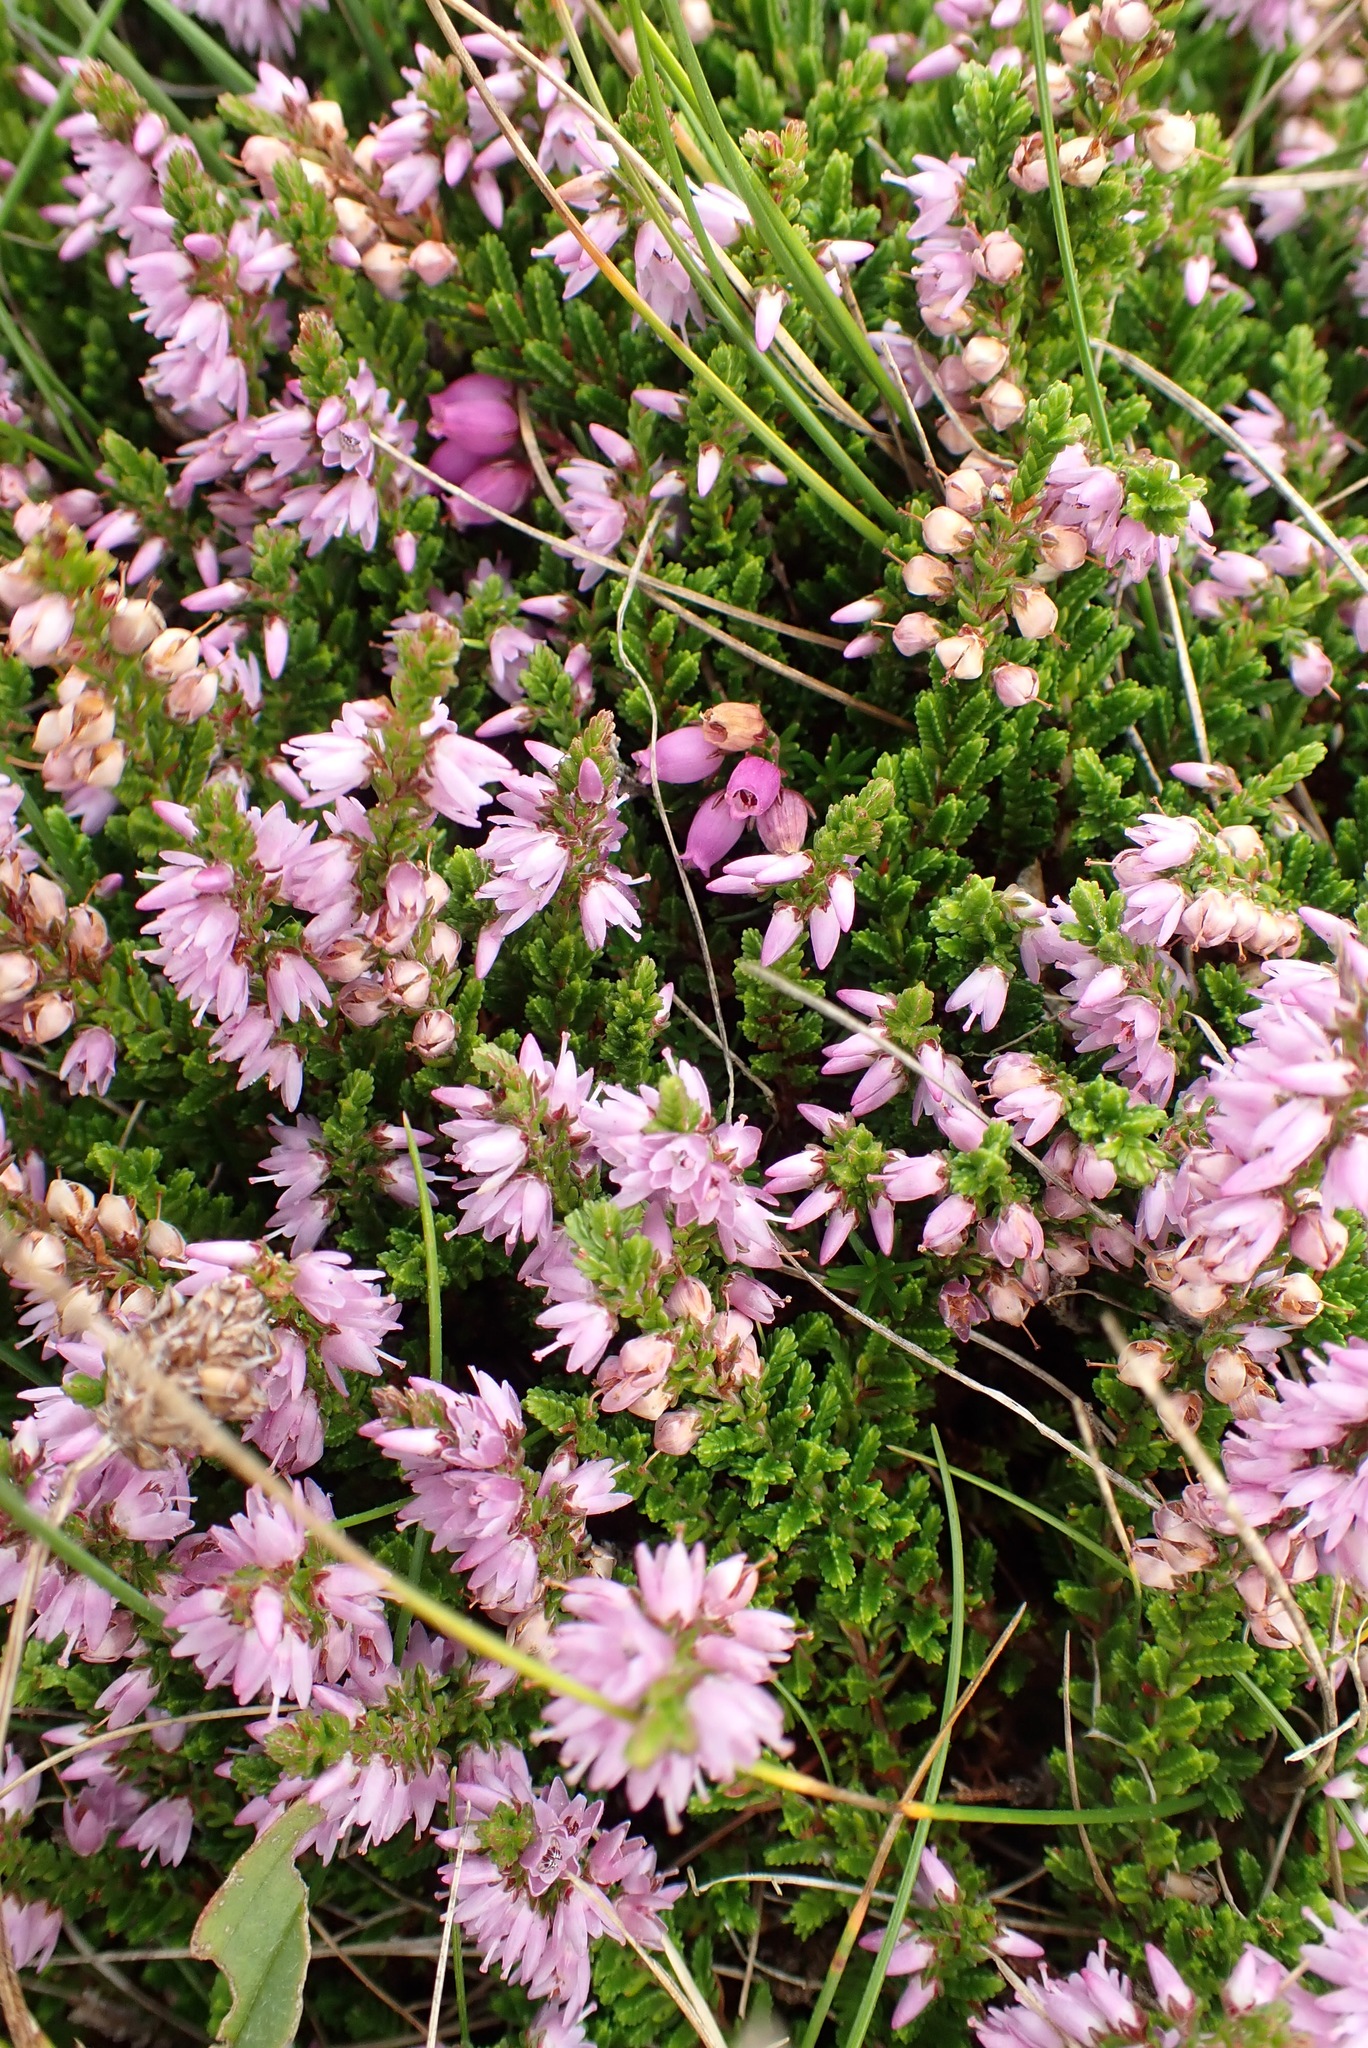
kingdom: Plantae
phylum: Tracheophyta
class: Magnoliopsida
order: Ericales
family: Ericaceae
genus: Calluna
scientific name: Calluna vulgaris
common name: Heather
